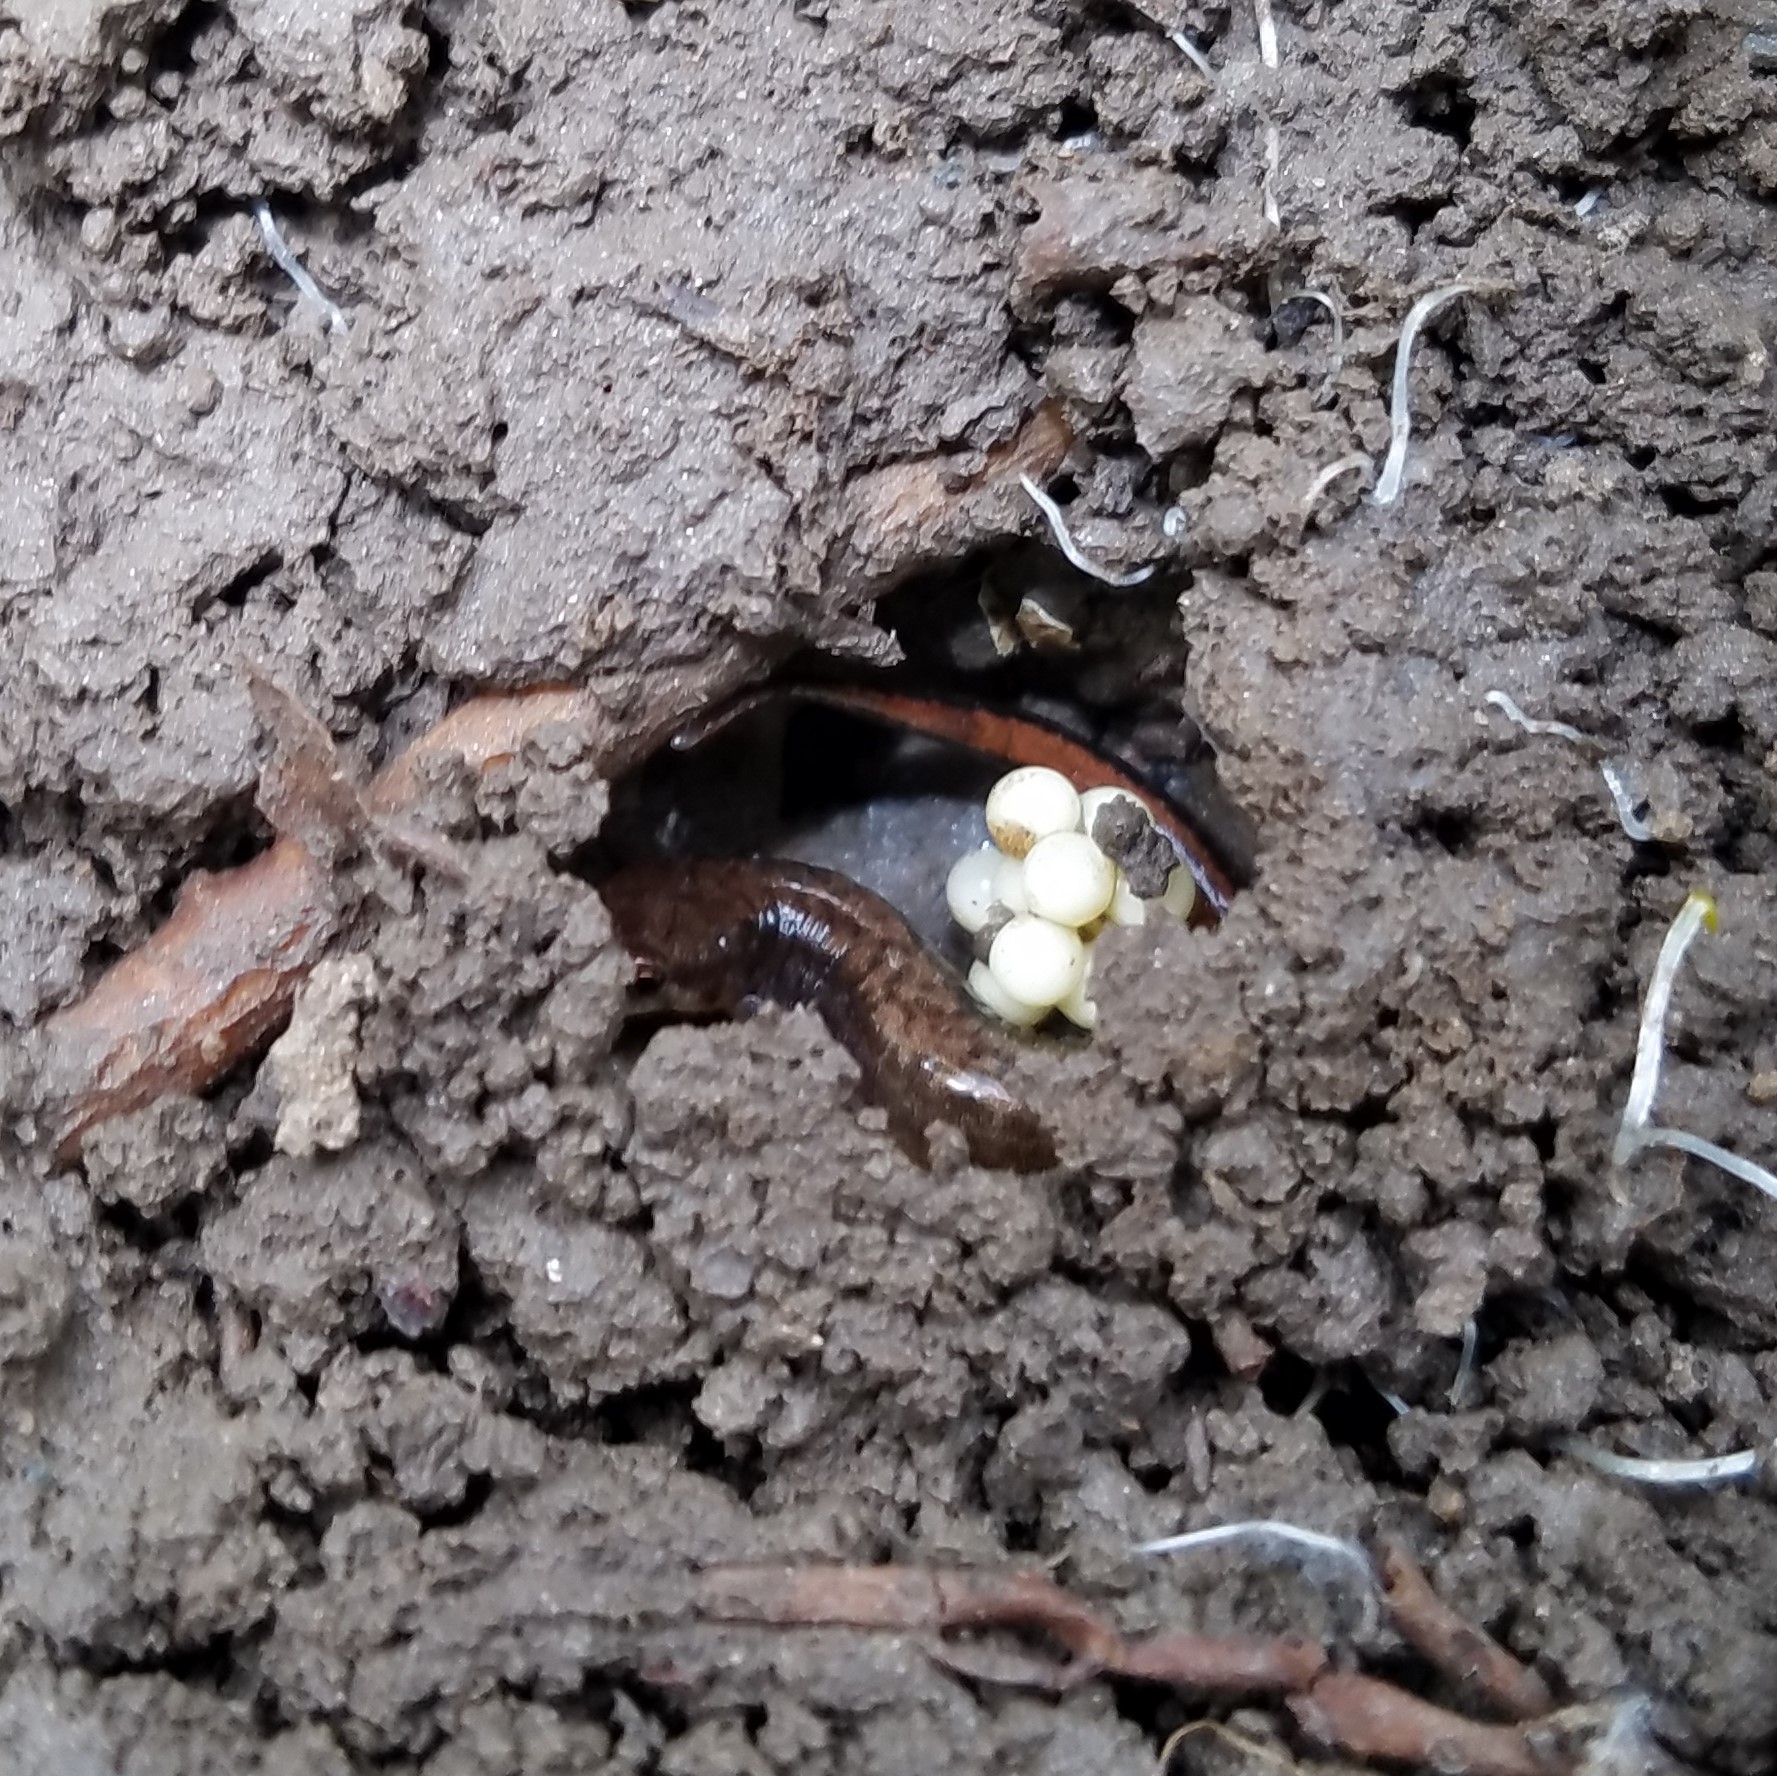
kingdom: Animalia
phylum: Chordata
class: Amphibia
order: Caudata
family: Plethodontidae
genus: Desmognathus
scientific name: Desmognathus aeneus
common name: Seepage salamander
